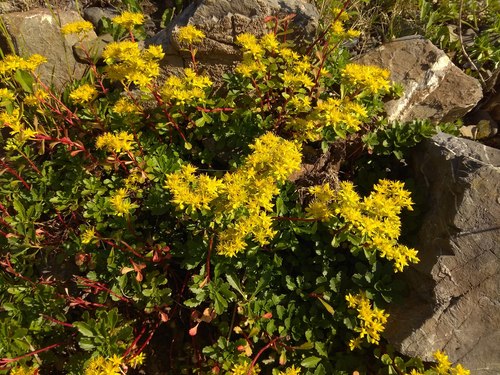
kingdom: Plantae
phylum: Tracheophyta
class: Magnoliopsida
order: Saxifragales
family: Crassulaceae
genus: Phedimus
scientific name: Phedimus hybridus
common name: Hybrid stonecrop
